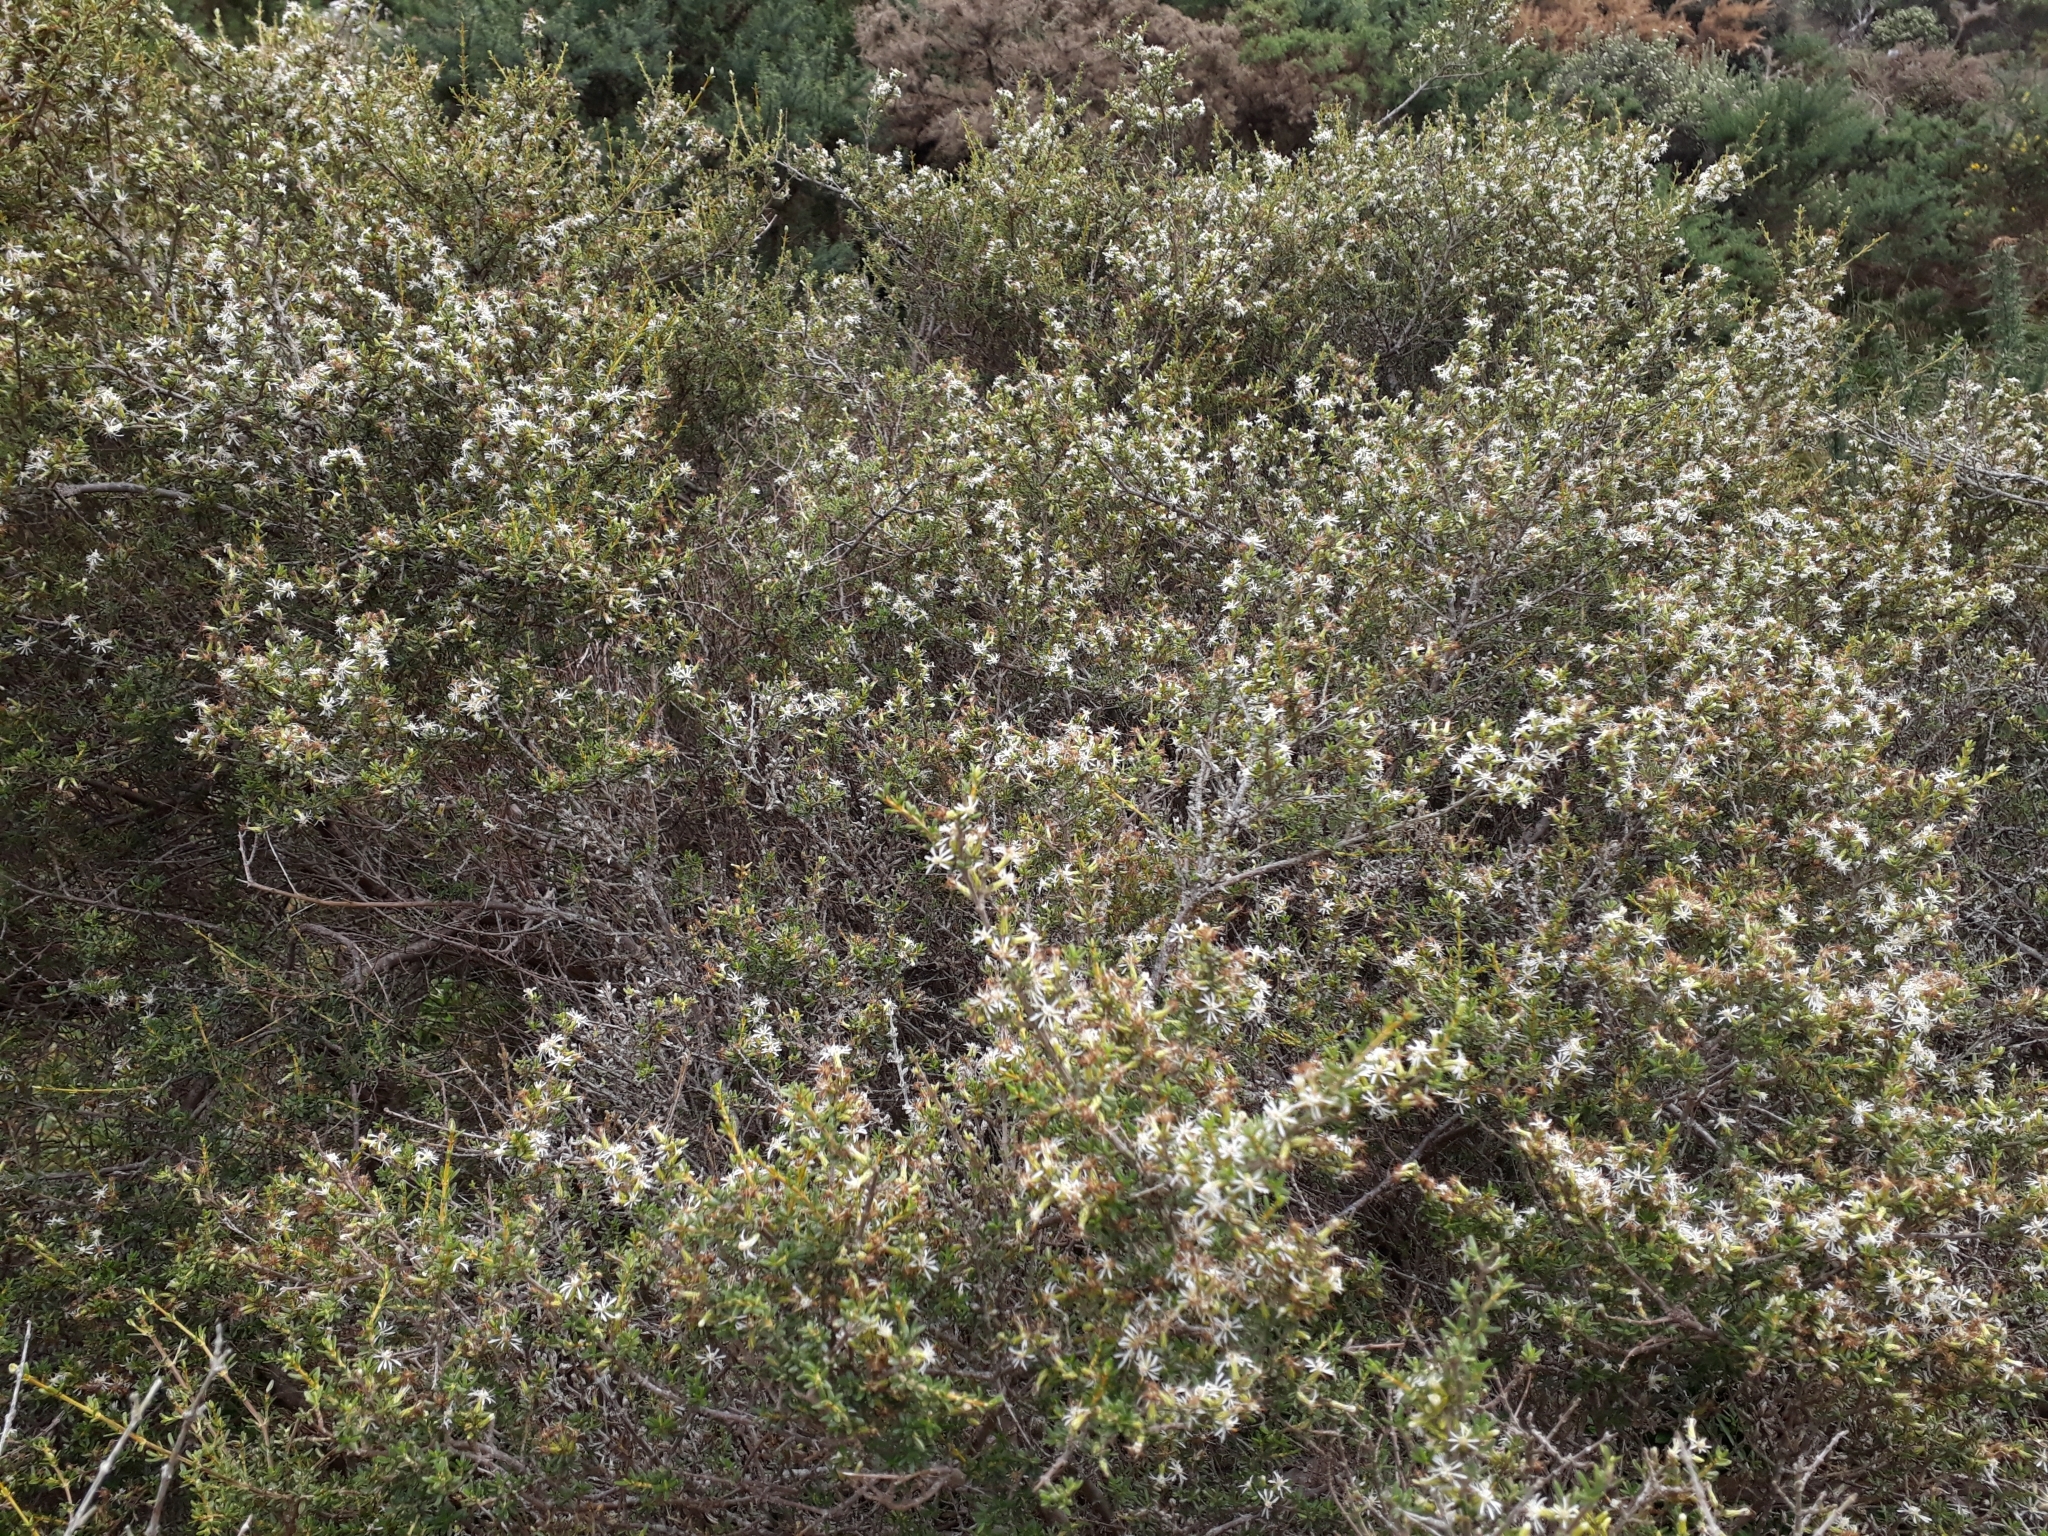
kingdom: Plantae
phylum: Tracheophyta
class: Magnoliopsida
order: Asterales
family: Asteraceae
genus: Olearia
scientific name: Olearia solandri
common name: Coastal daisybush
